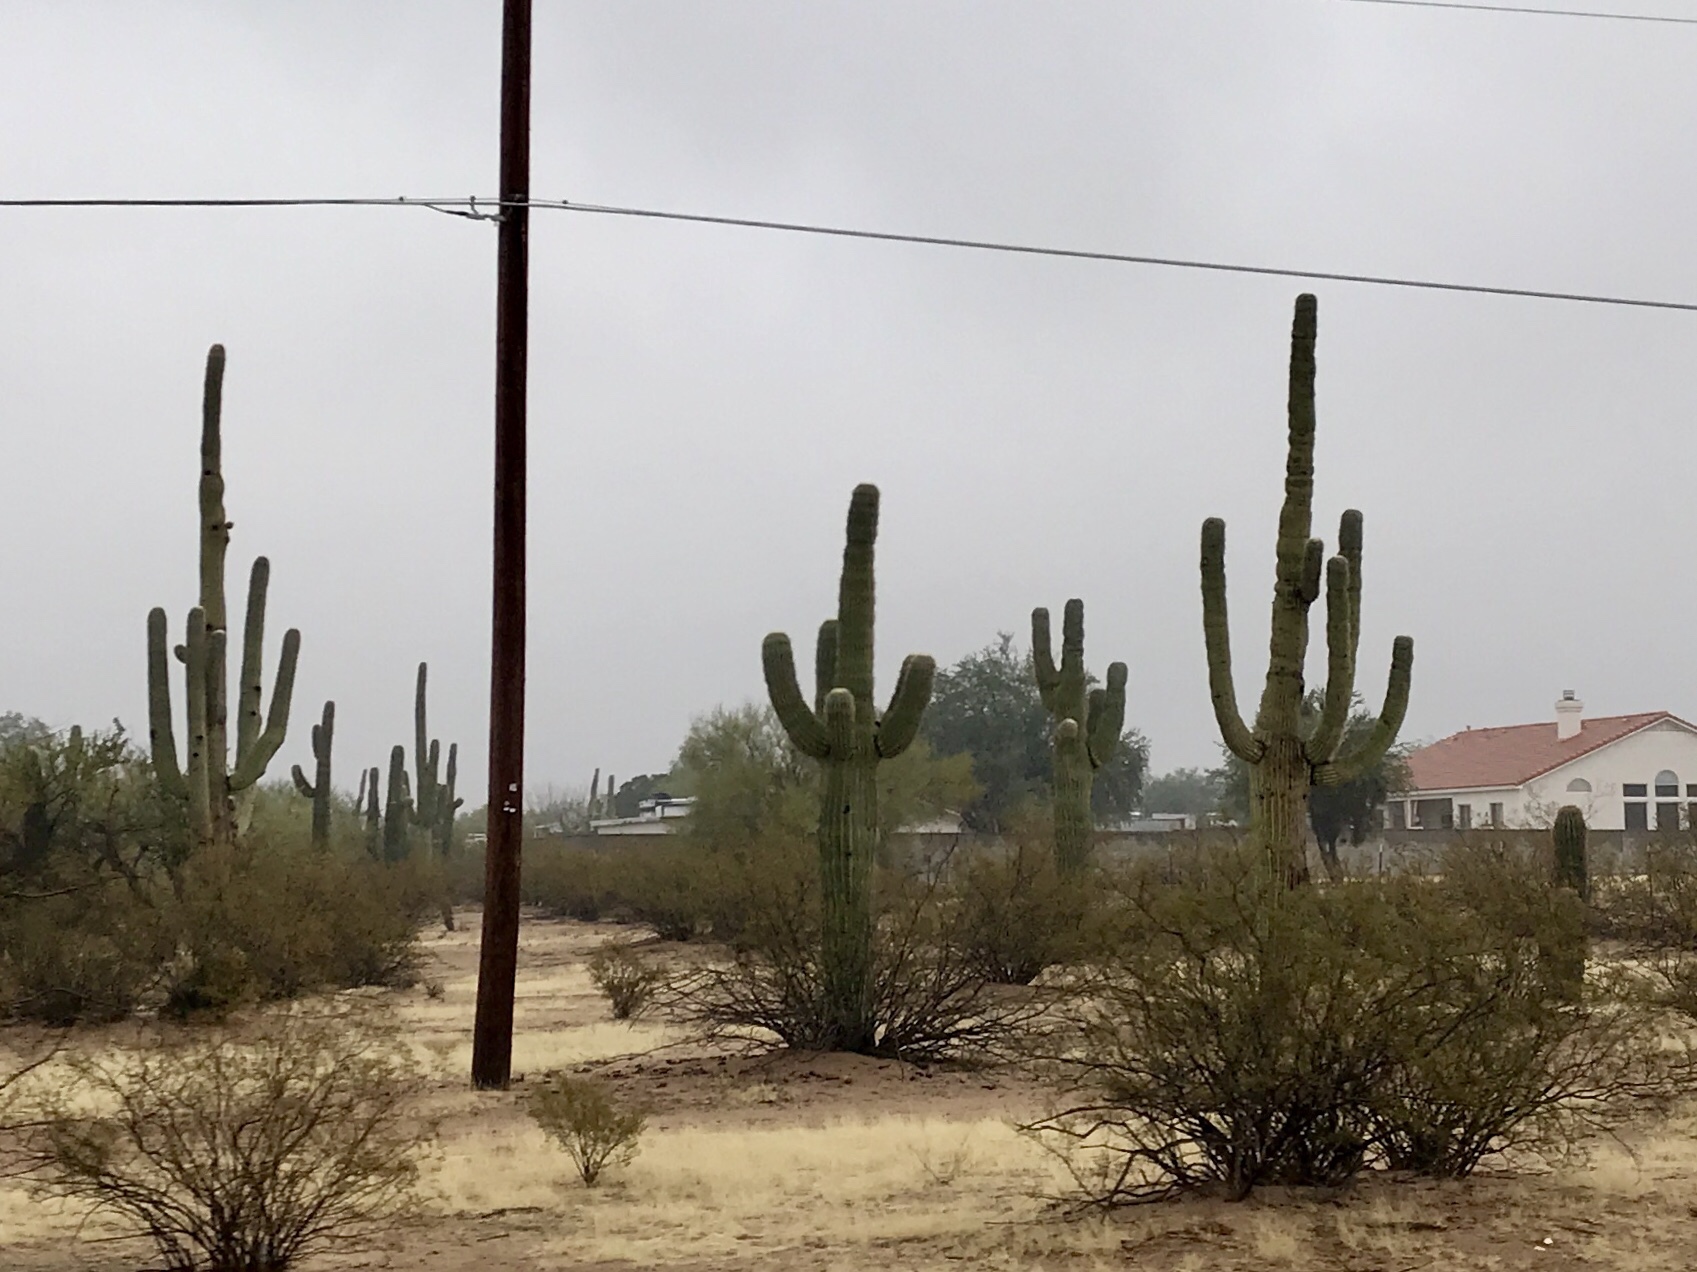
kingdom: Plantae
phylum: Tracheophyta
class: Magnoliopsida
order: Caryophyllales
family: Cactaceae
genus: Carnegiea
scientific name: Carnegiea gigantea
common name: Saguaro
